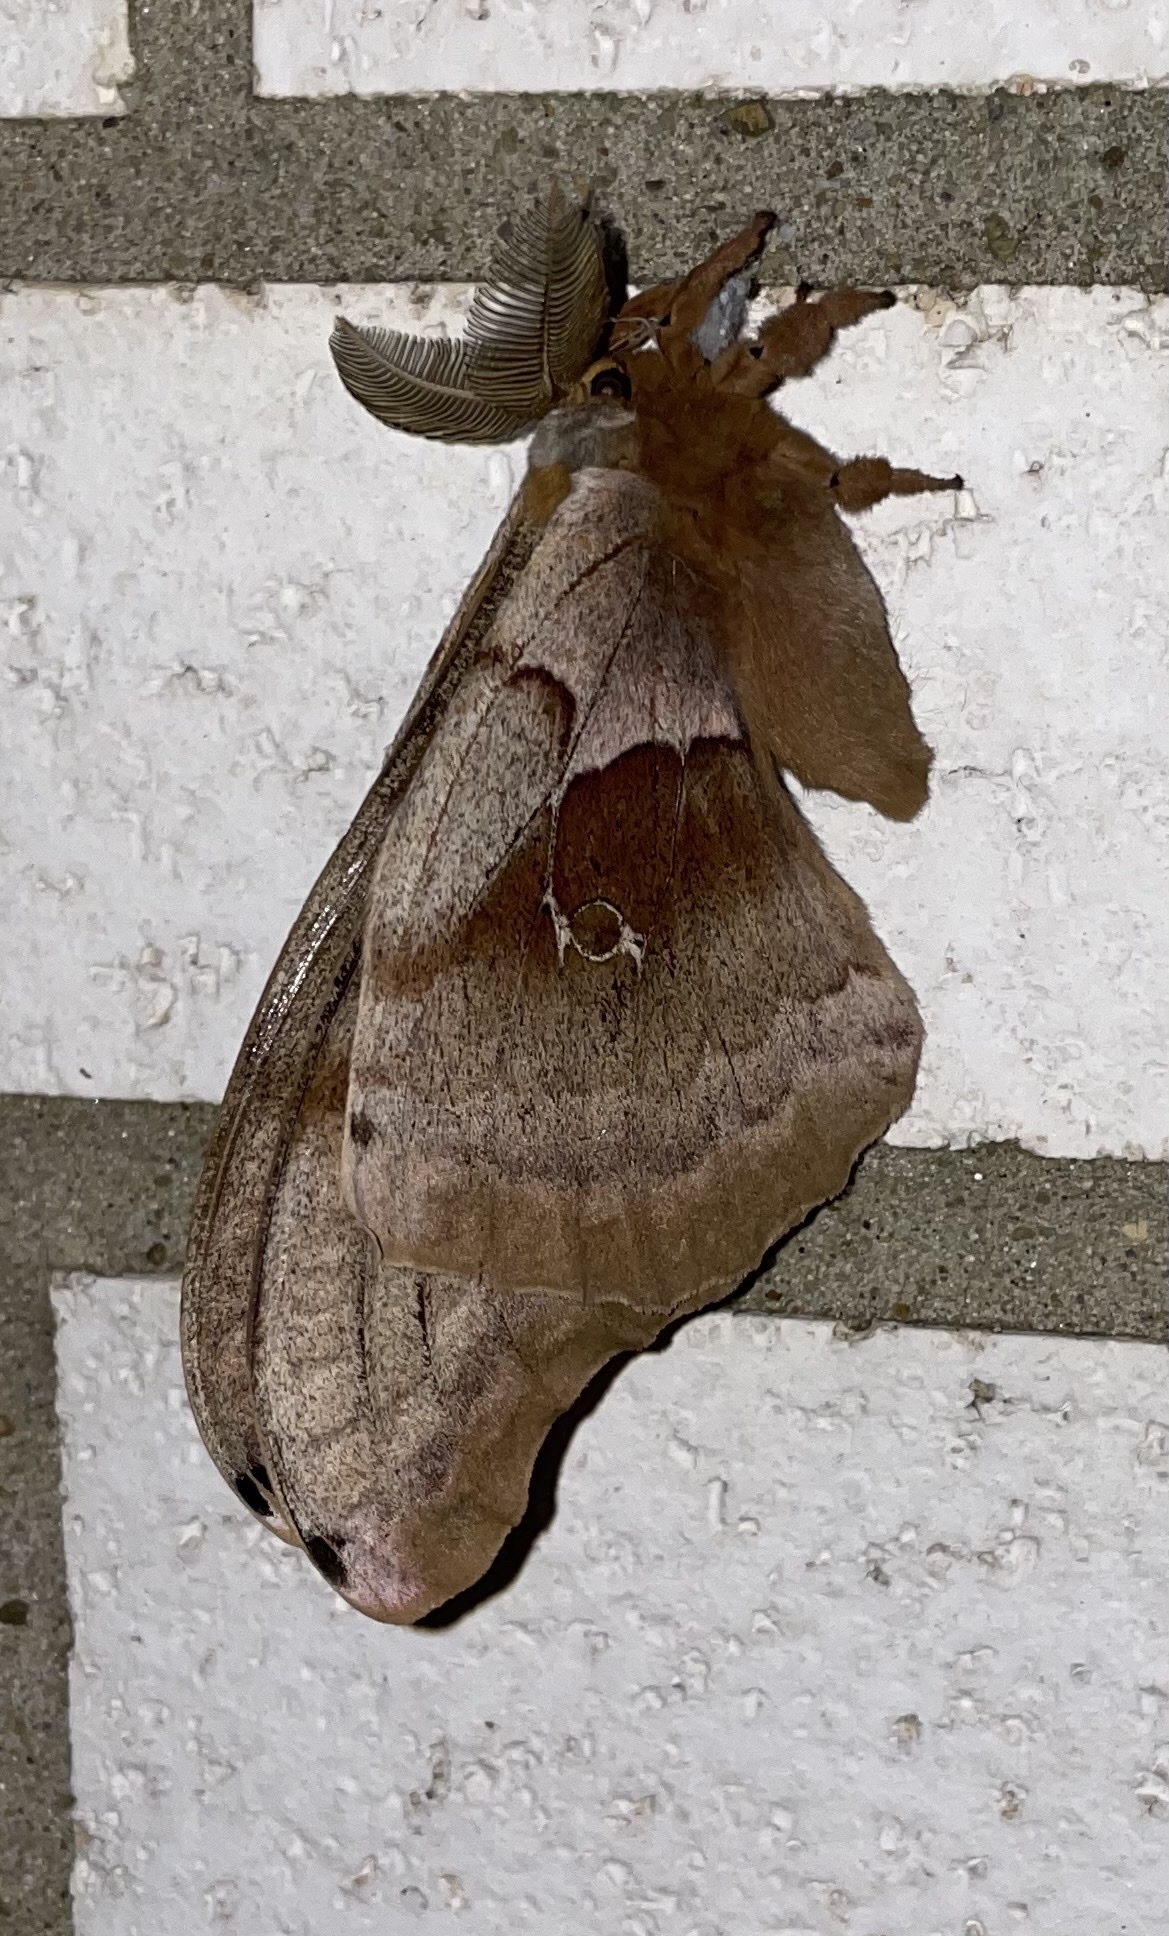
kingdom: Animalia
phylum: Arthropoda
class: Insecta
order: Lepidoptera
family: Saturniidae
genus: Antheraea
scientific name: Antheraea polyphemus
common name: Polyphemus moth
